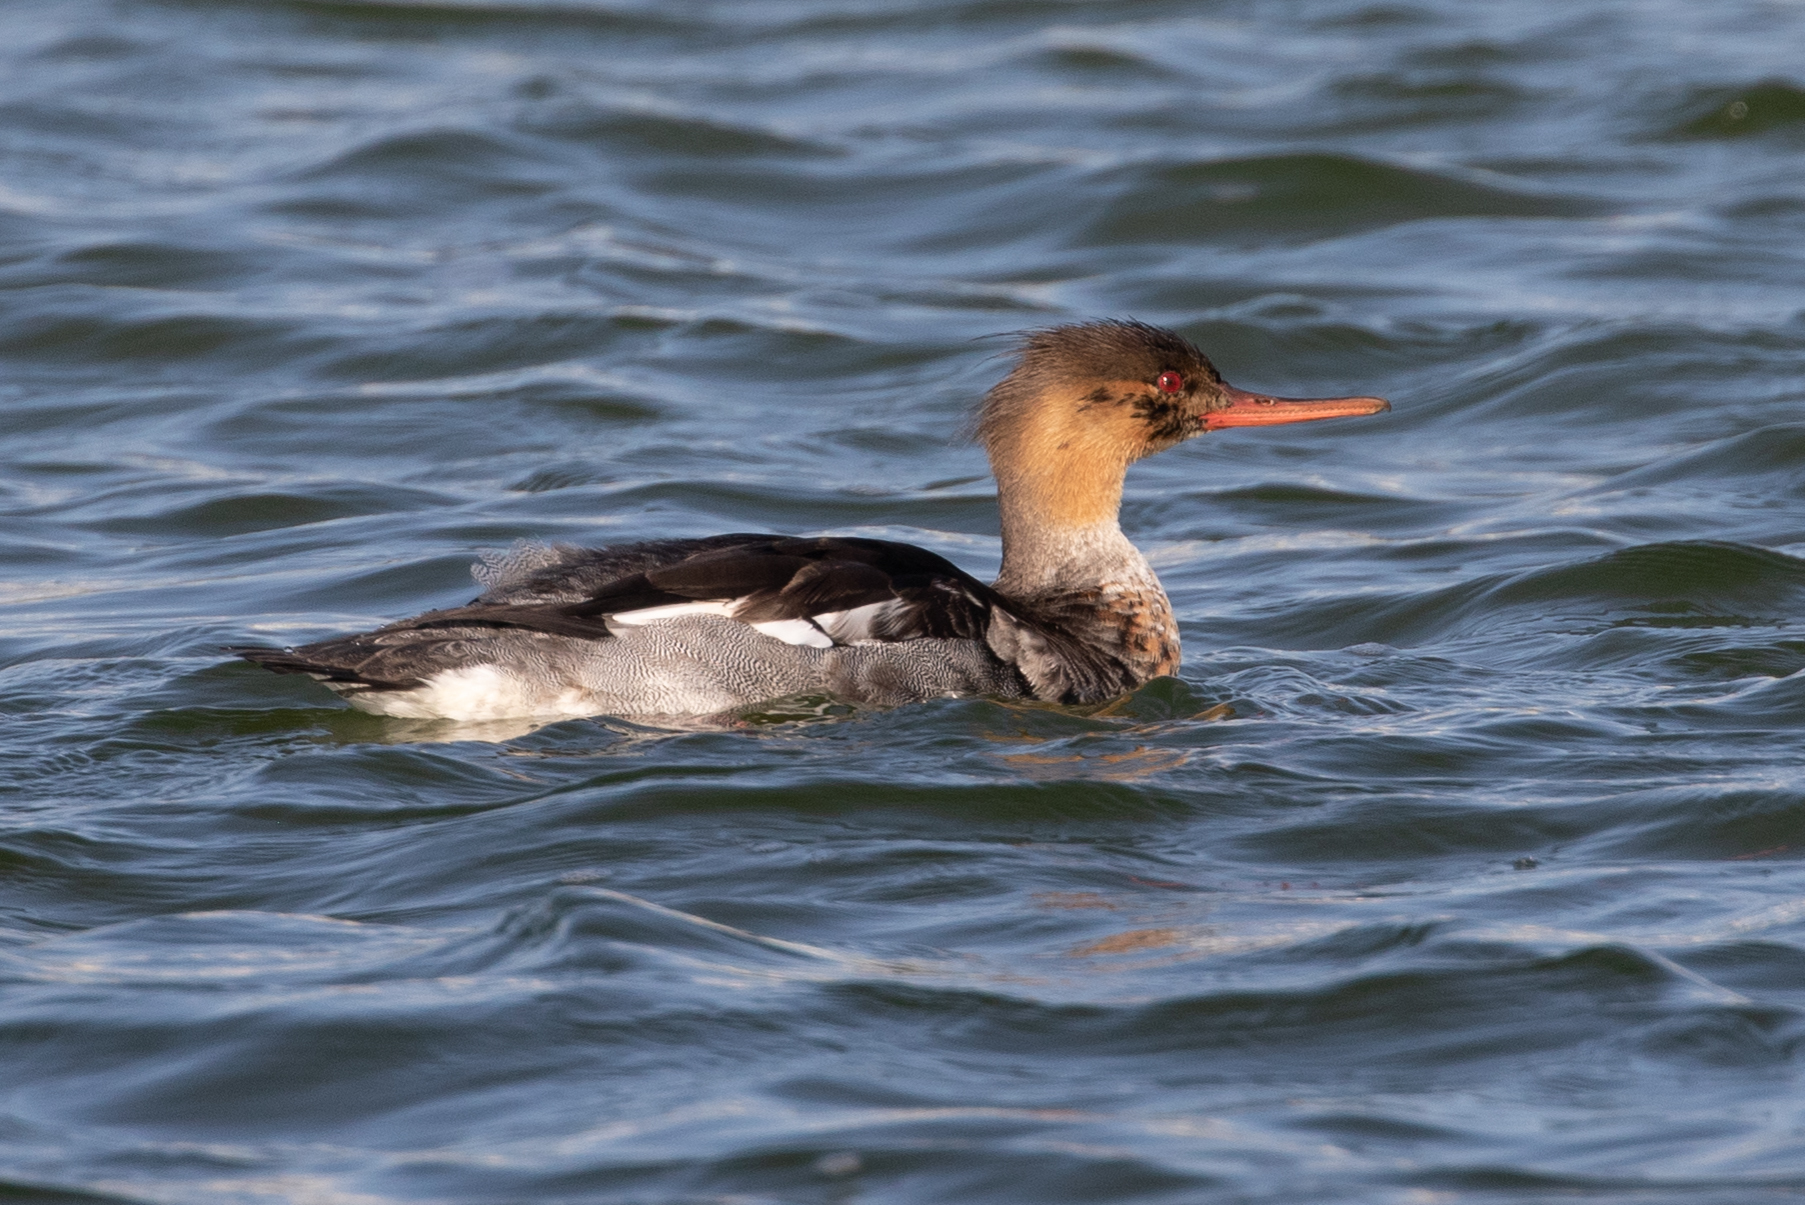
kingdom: Animalia
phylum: Chordata
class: Aves
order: Anseriformes
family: Anatidae
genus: Mergus
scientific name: Mergus serrator
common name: Red-breasted merganser
